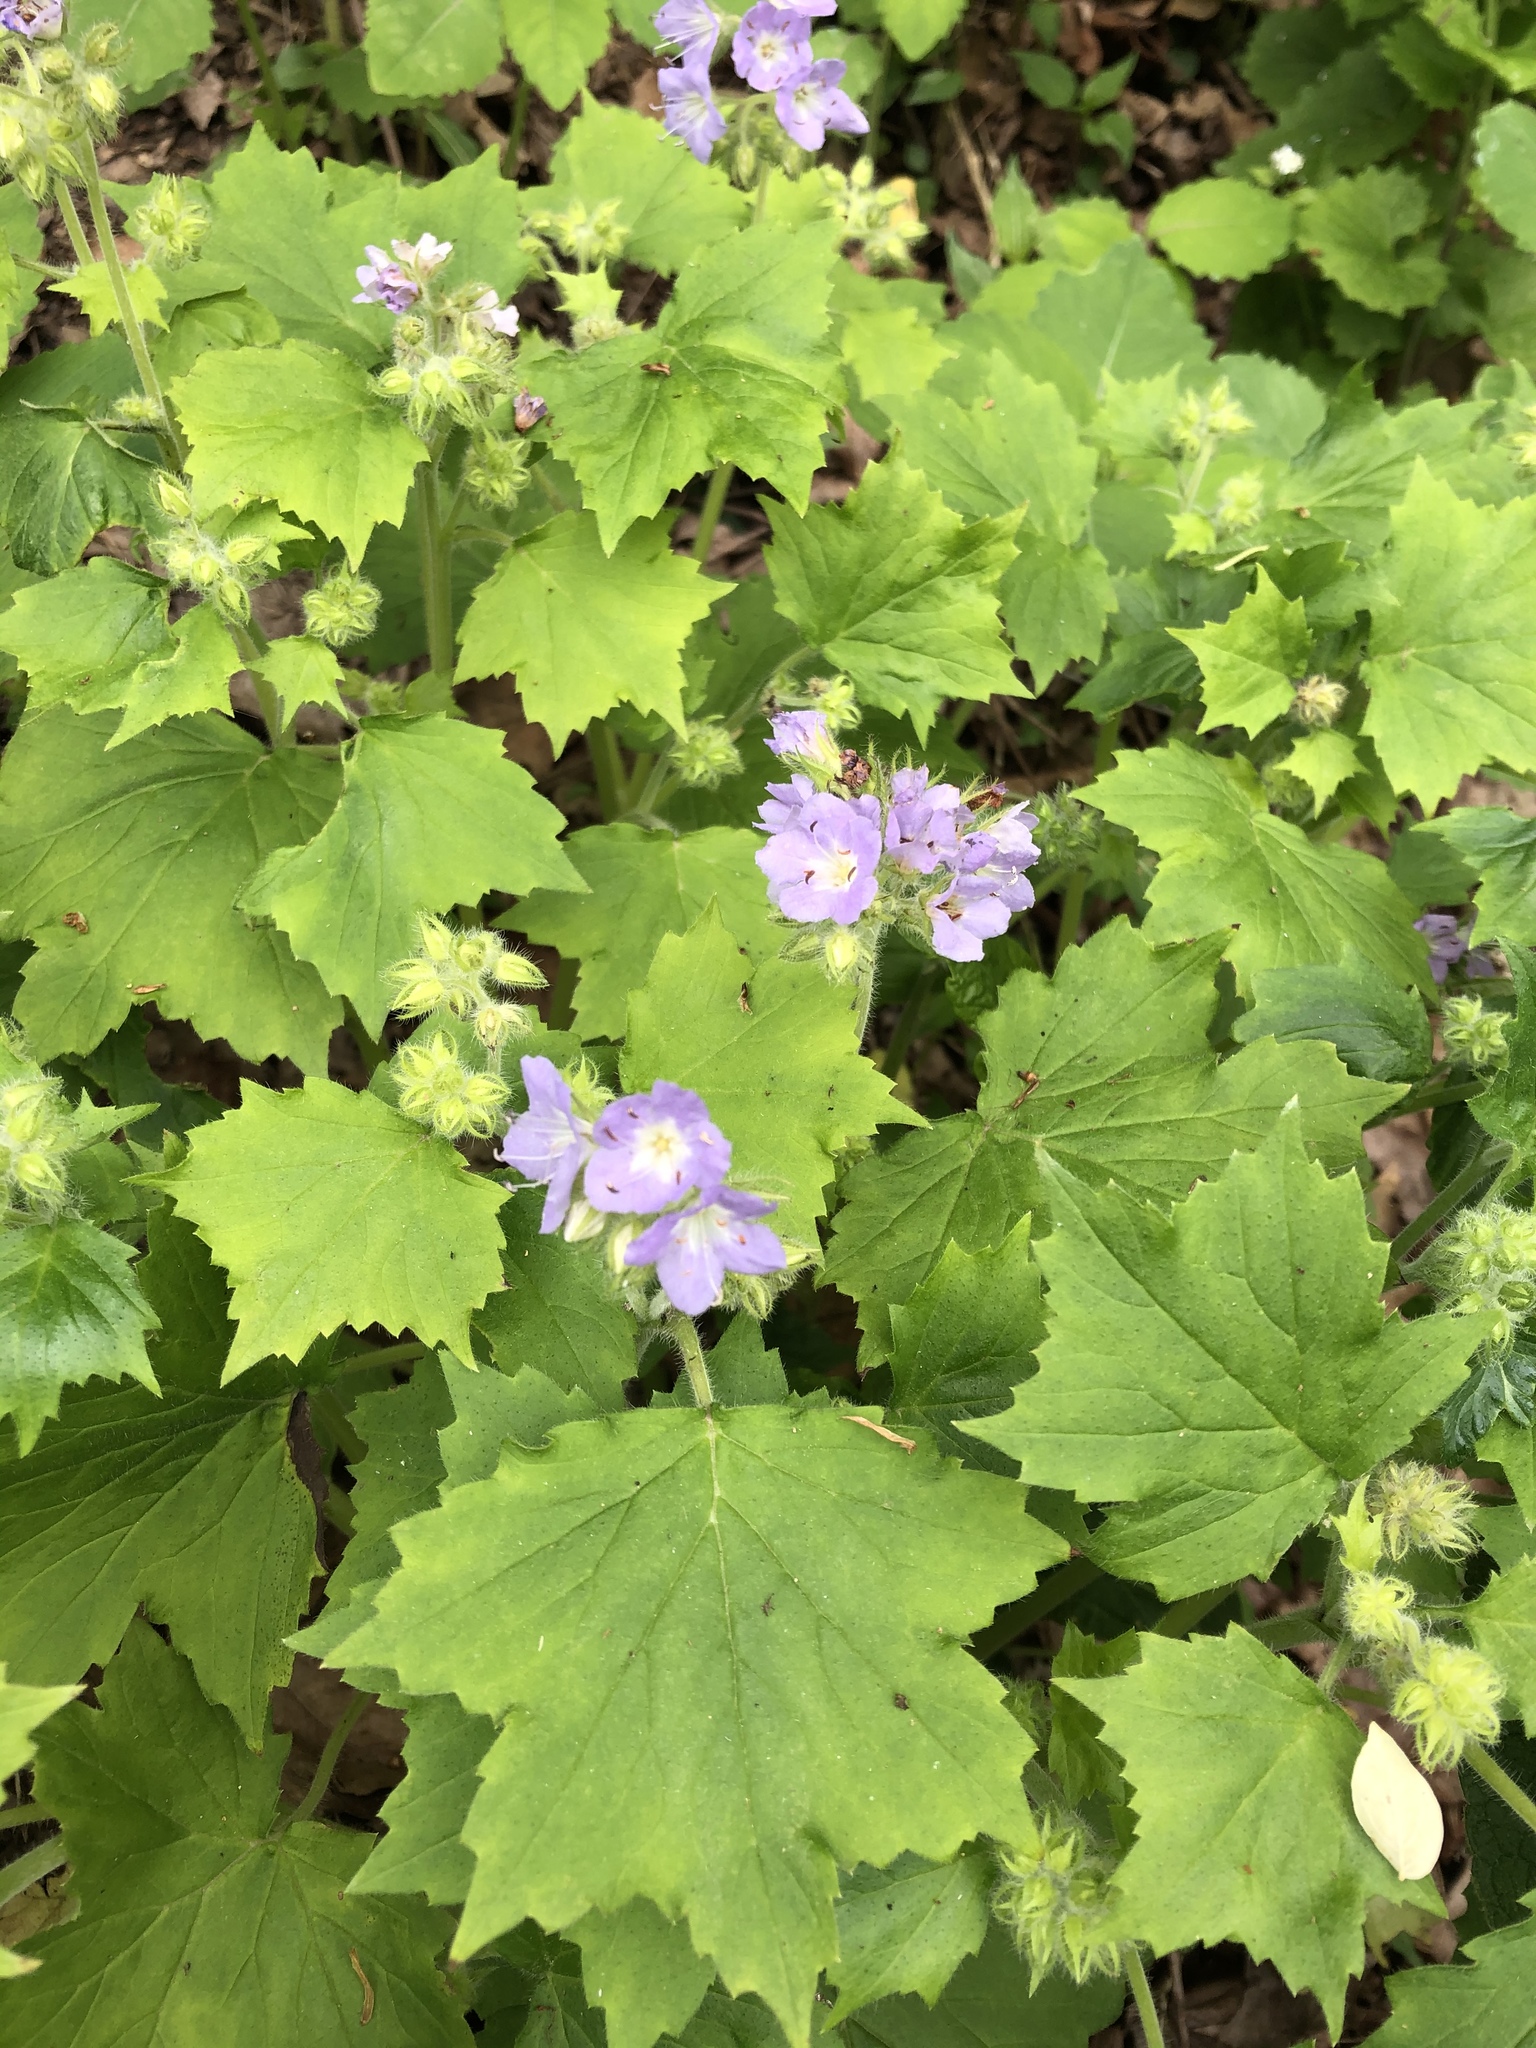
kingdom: Plantae
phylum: Tracheophyta
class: Magnoliopsida
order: Boraginales
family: Hydrophyllaceae
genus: Hydrophyllum
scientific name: Hydrophyllum appendiculatum
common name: Appendaged waterleaf
